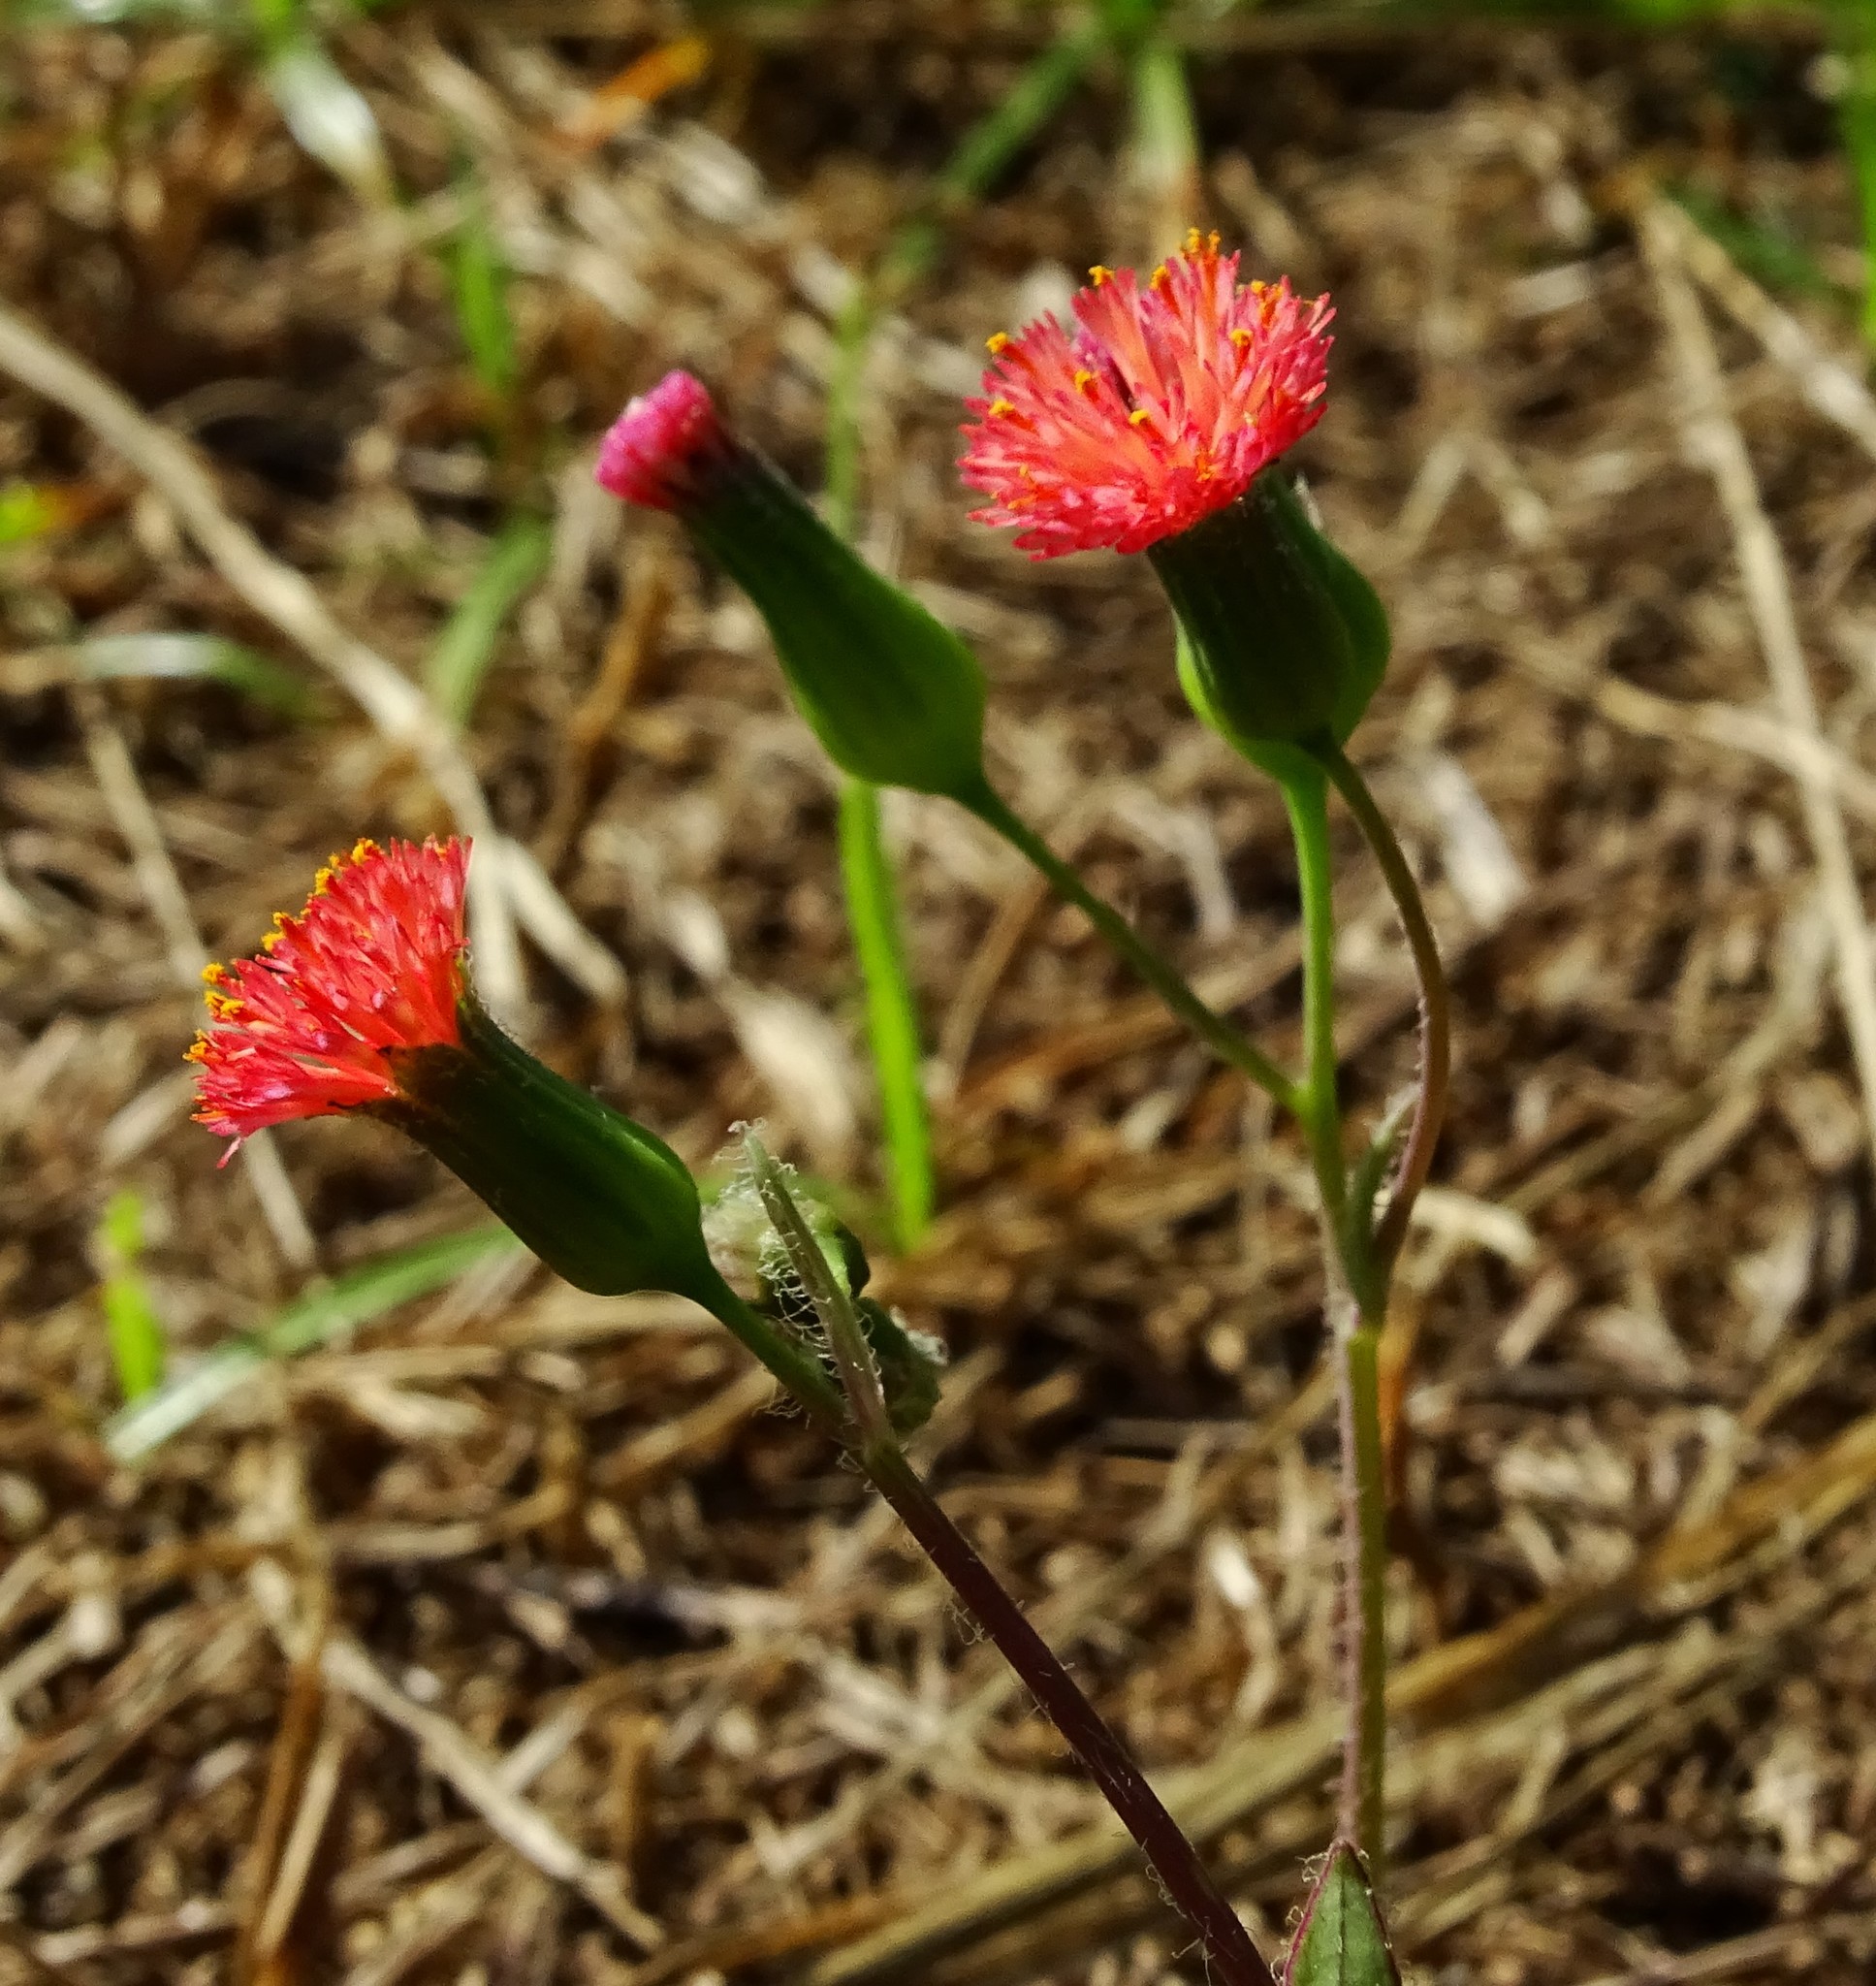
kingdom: Plantae
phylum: Tracheophyta
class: Magnoliopsida
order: Asterales
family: Asteraceae
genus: Emilia
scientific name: Emilia fosbergii
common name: Florida tasselflower
